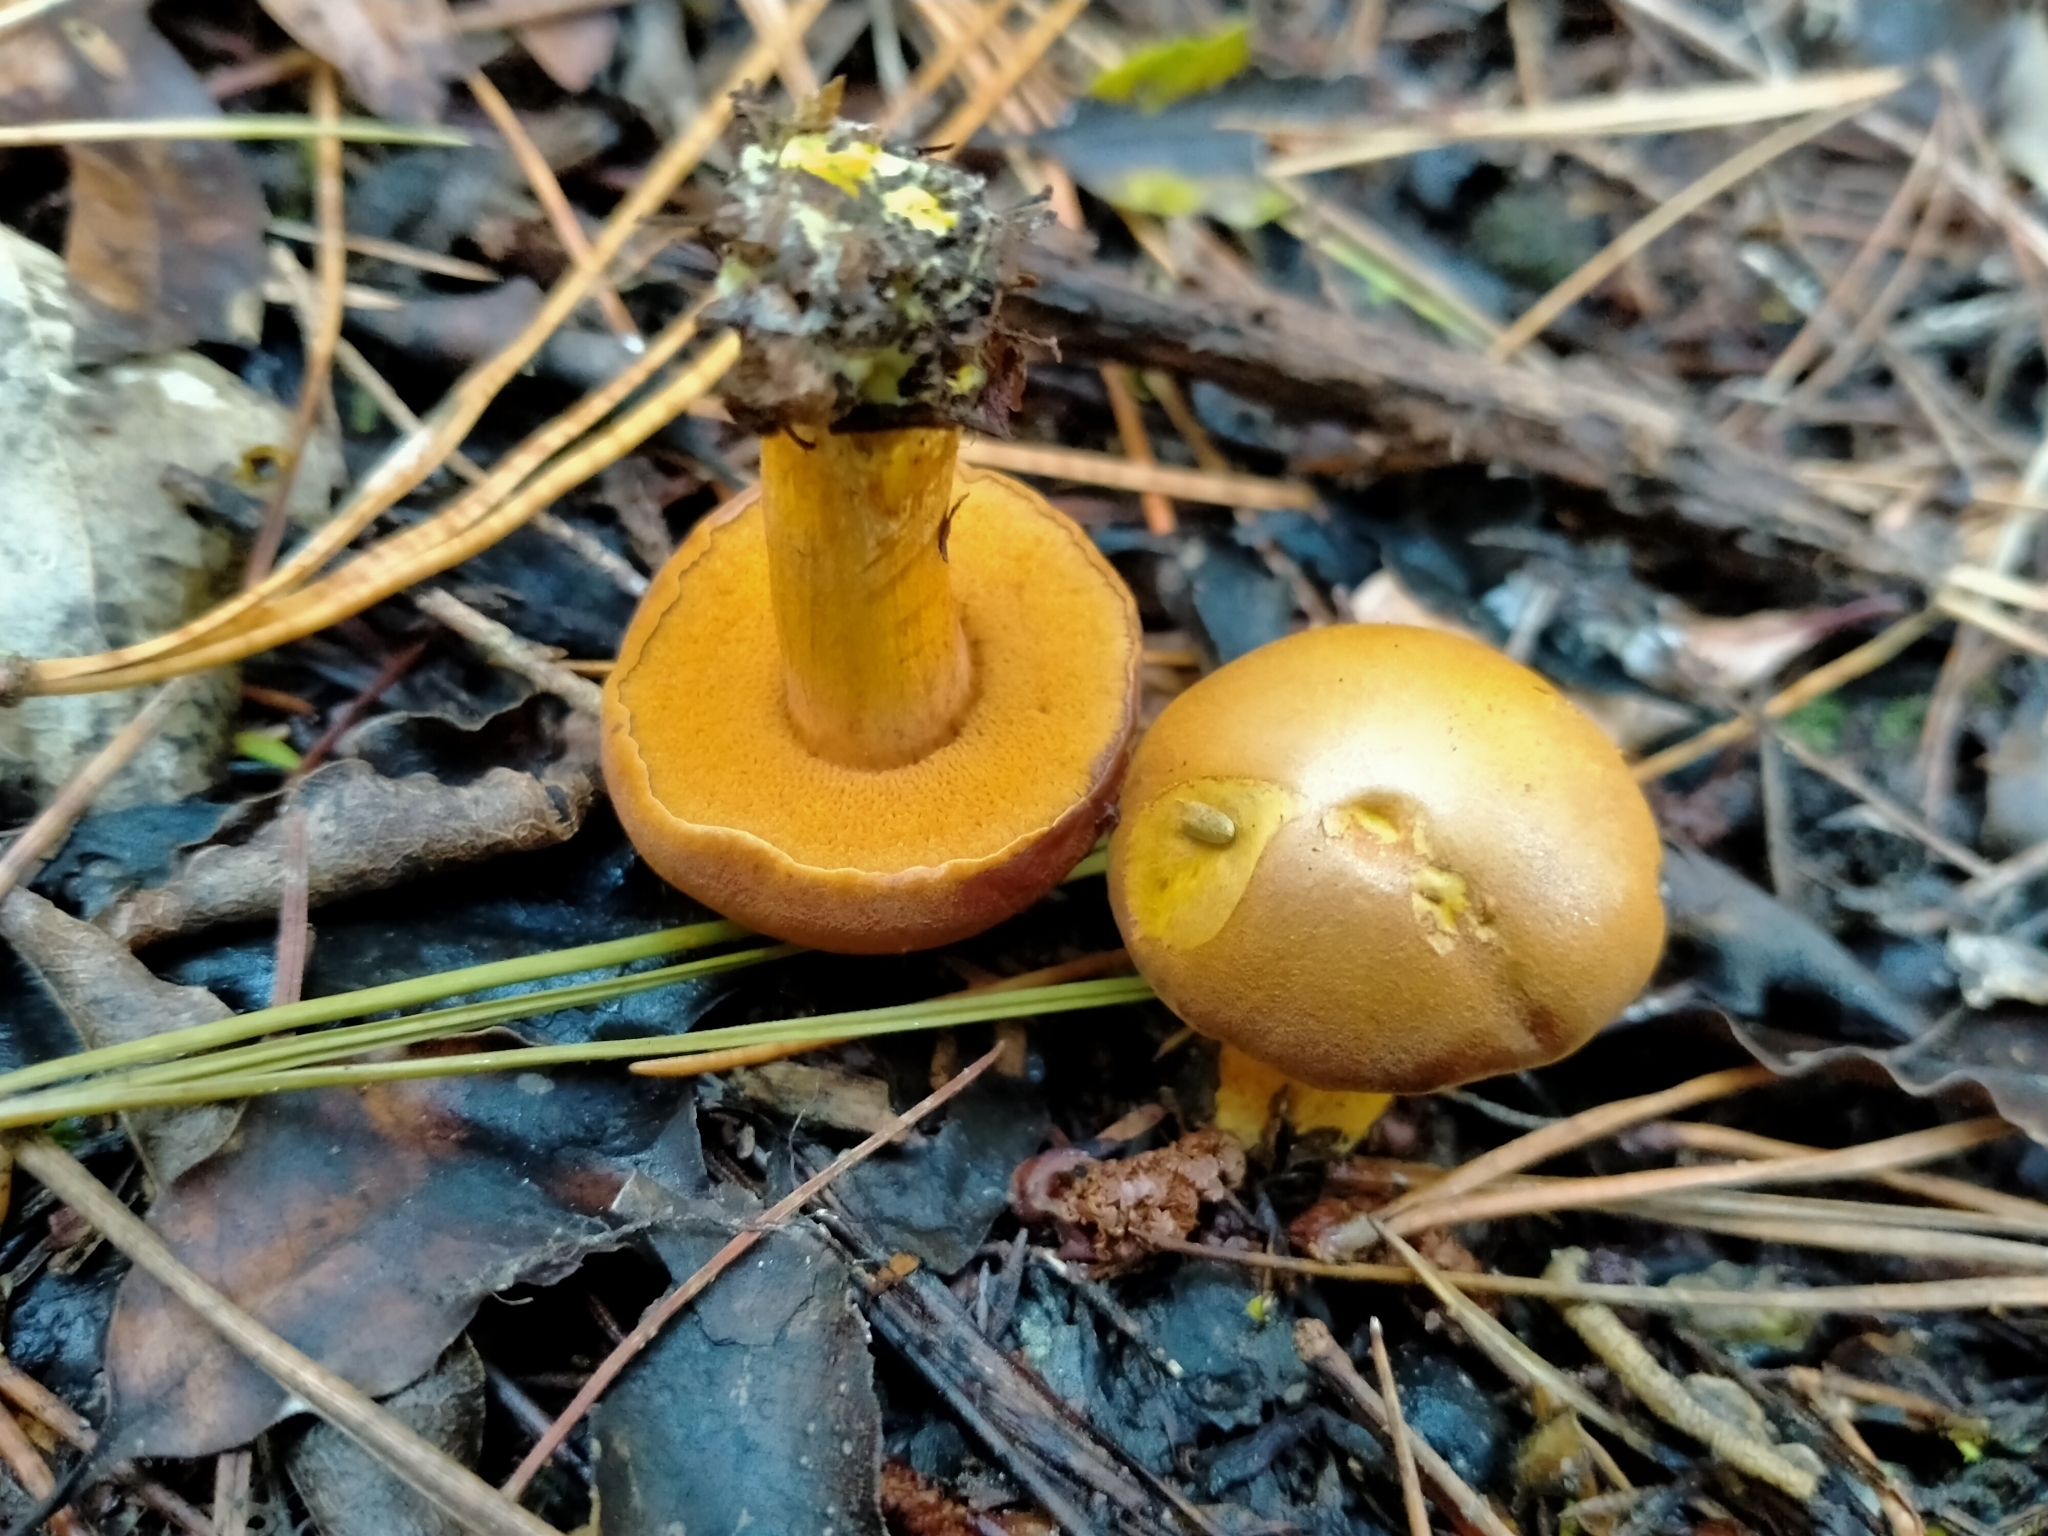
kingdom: Fungi
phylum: Basidiomycota
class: Agaricomycetes
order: Boletales
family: Boletaceae
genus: Chalciporus
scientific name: Chalciporus piperatus
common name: Peppery bolete
